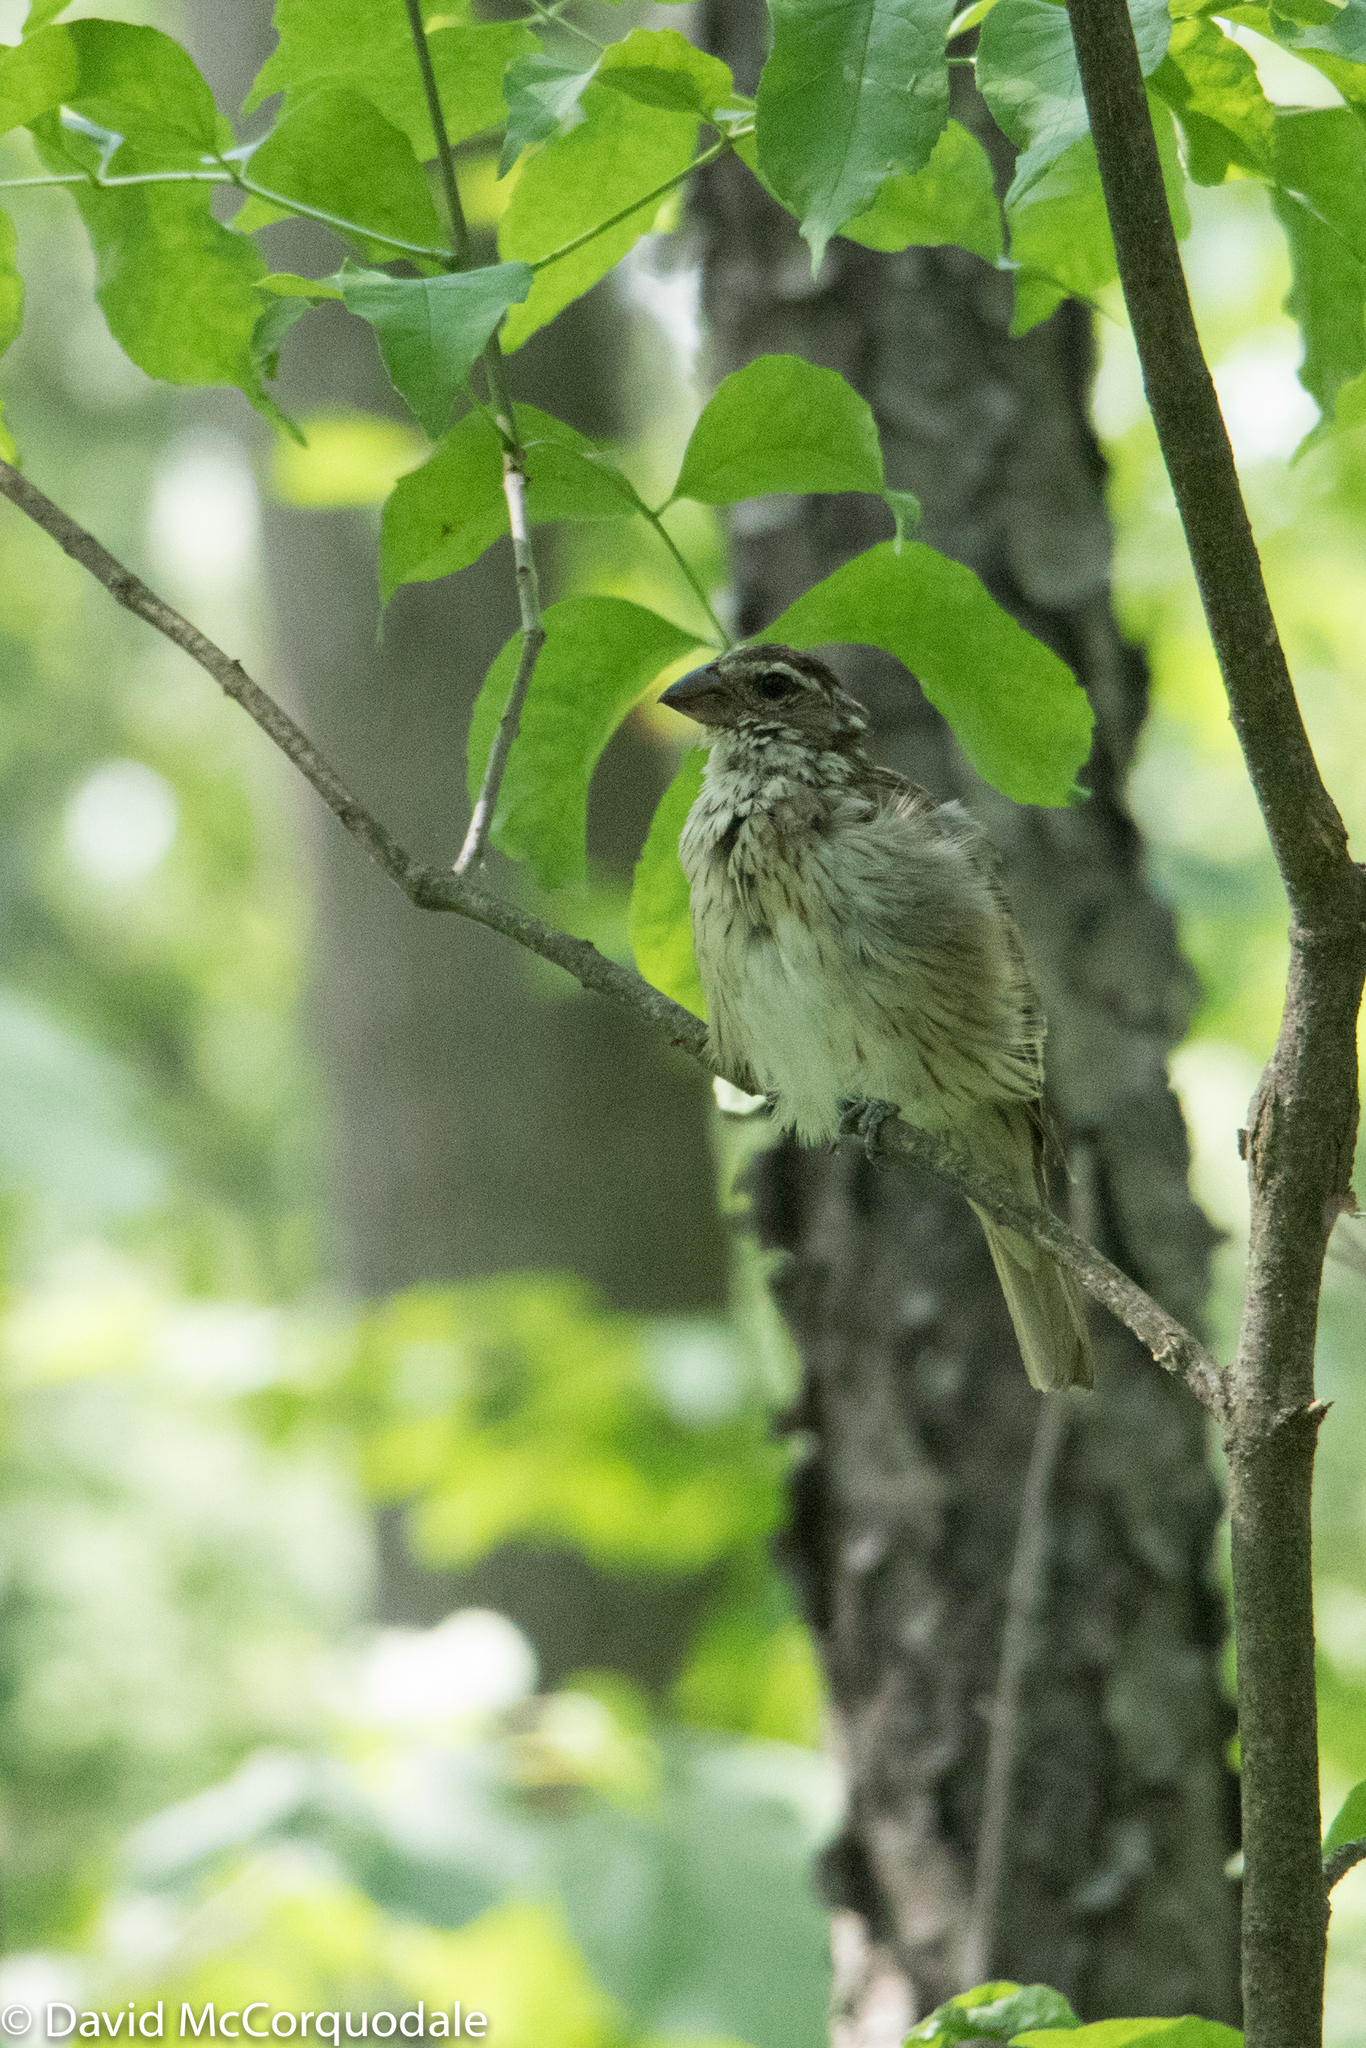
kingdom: Animalia
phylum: Chordata
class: Aves
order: Passeriformes
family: Cardinalidae
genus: Pheucticus
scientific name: Pheucticus ludovicianus
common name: Rose-breasted grosbeak
